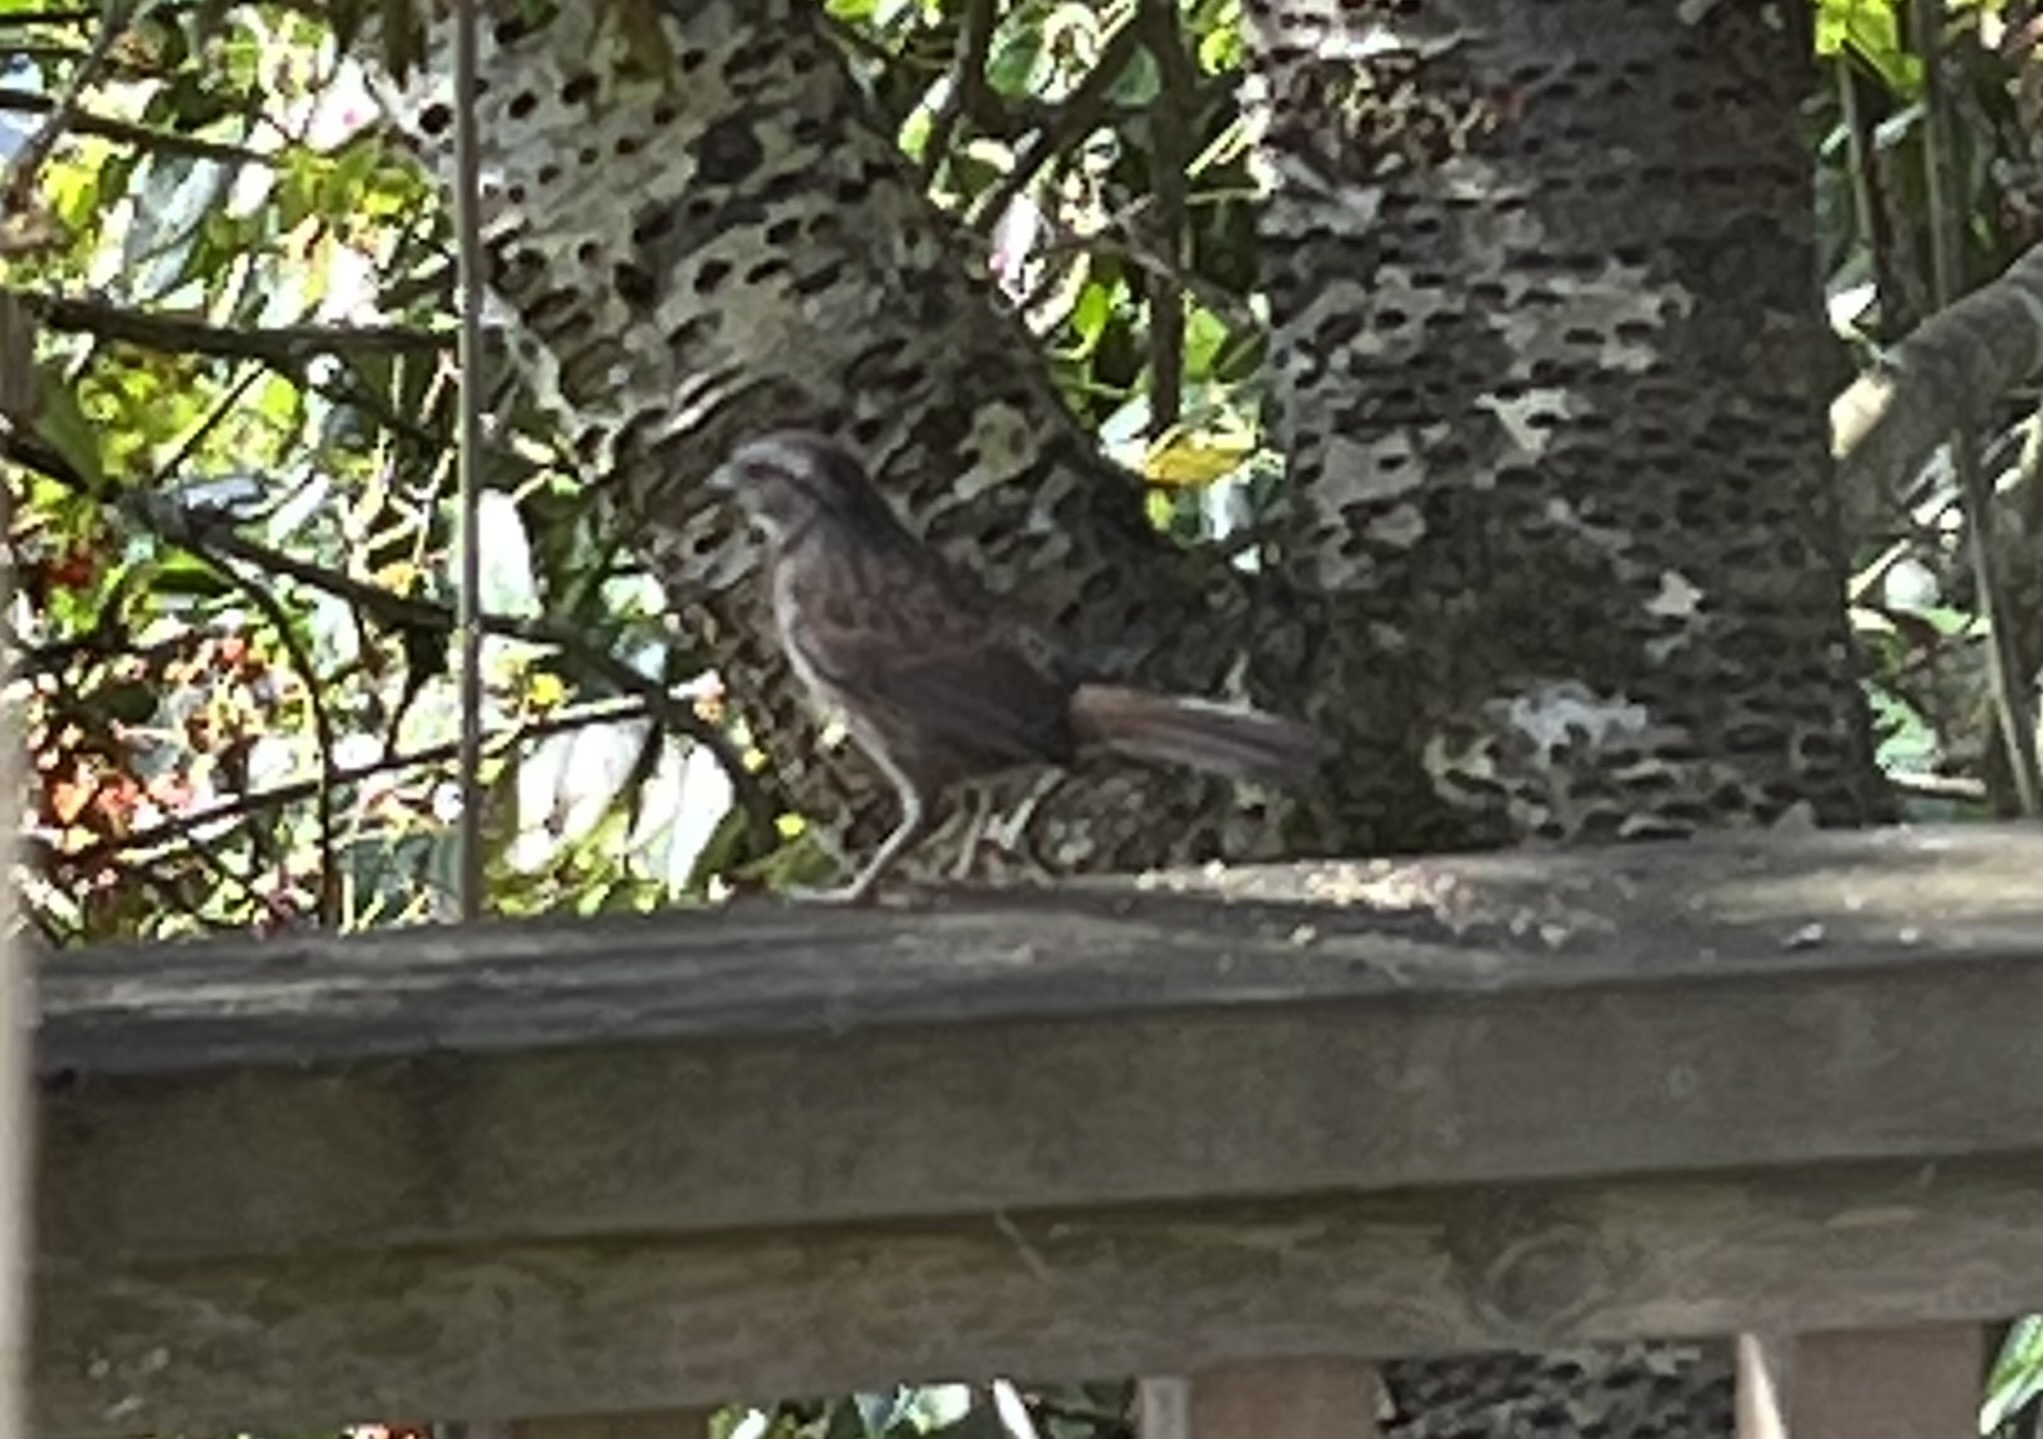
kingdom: Animalia
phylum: Chordata
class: Aves
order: Passeriformes
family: Passerellidae
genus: Melospiza
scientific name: Melospiza melodia
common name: Song sparrow
